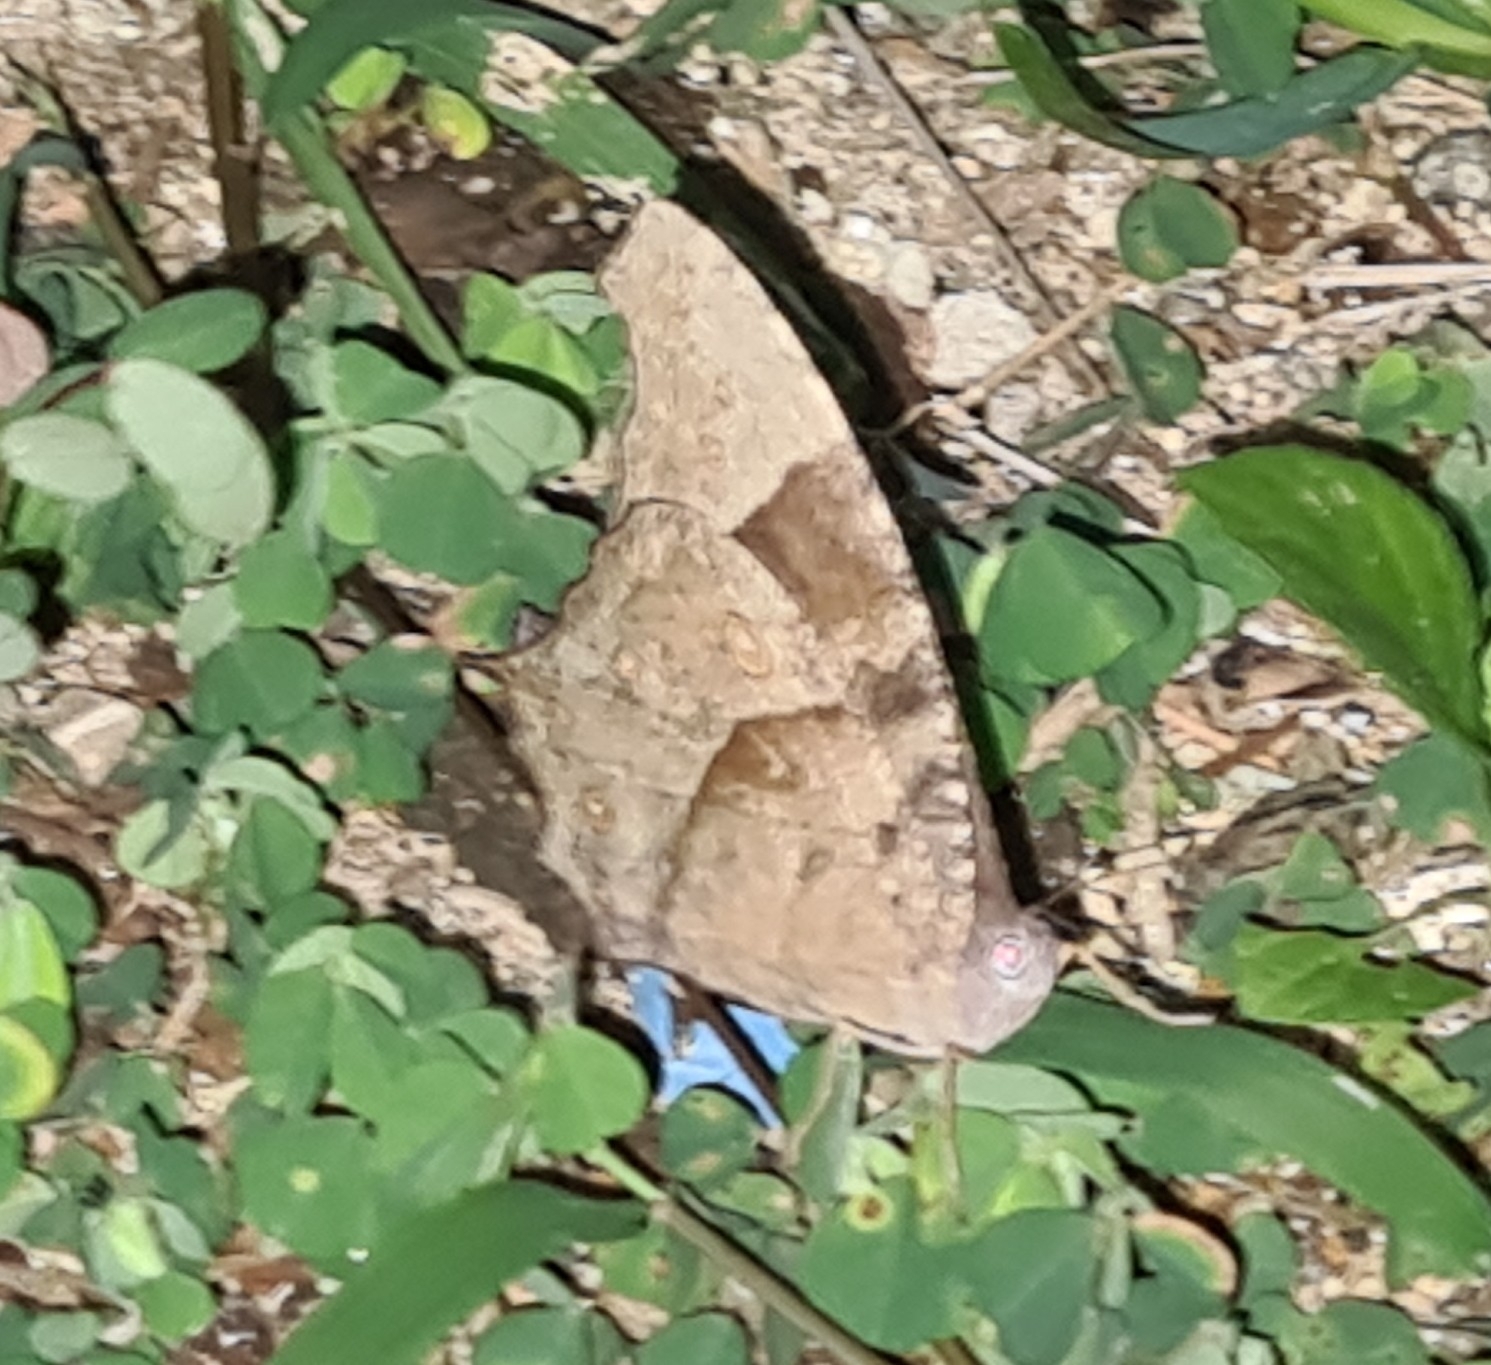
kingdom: Animalia
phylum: Arthropoda
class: Insecta
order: Lepidoptera
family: Nymphalidae
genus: Melanitis
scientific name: Melanitis leda
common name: Twilight brown
